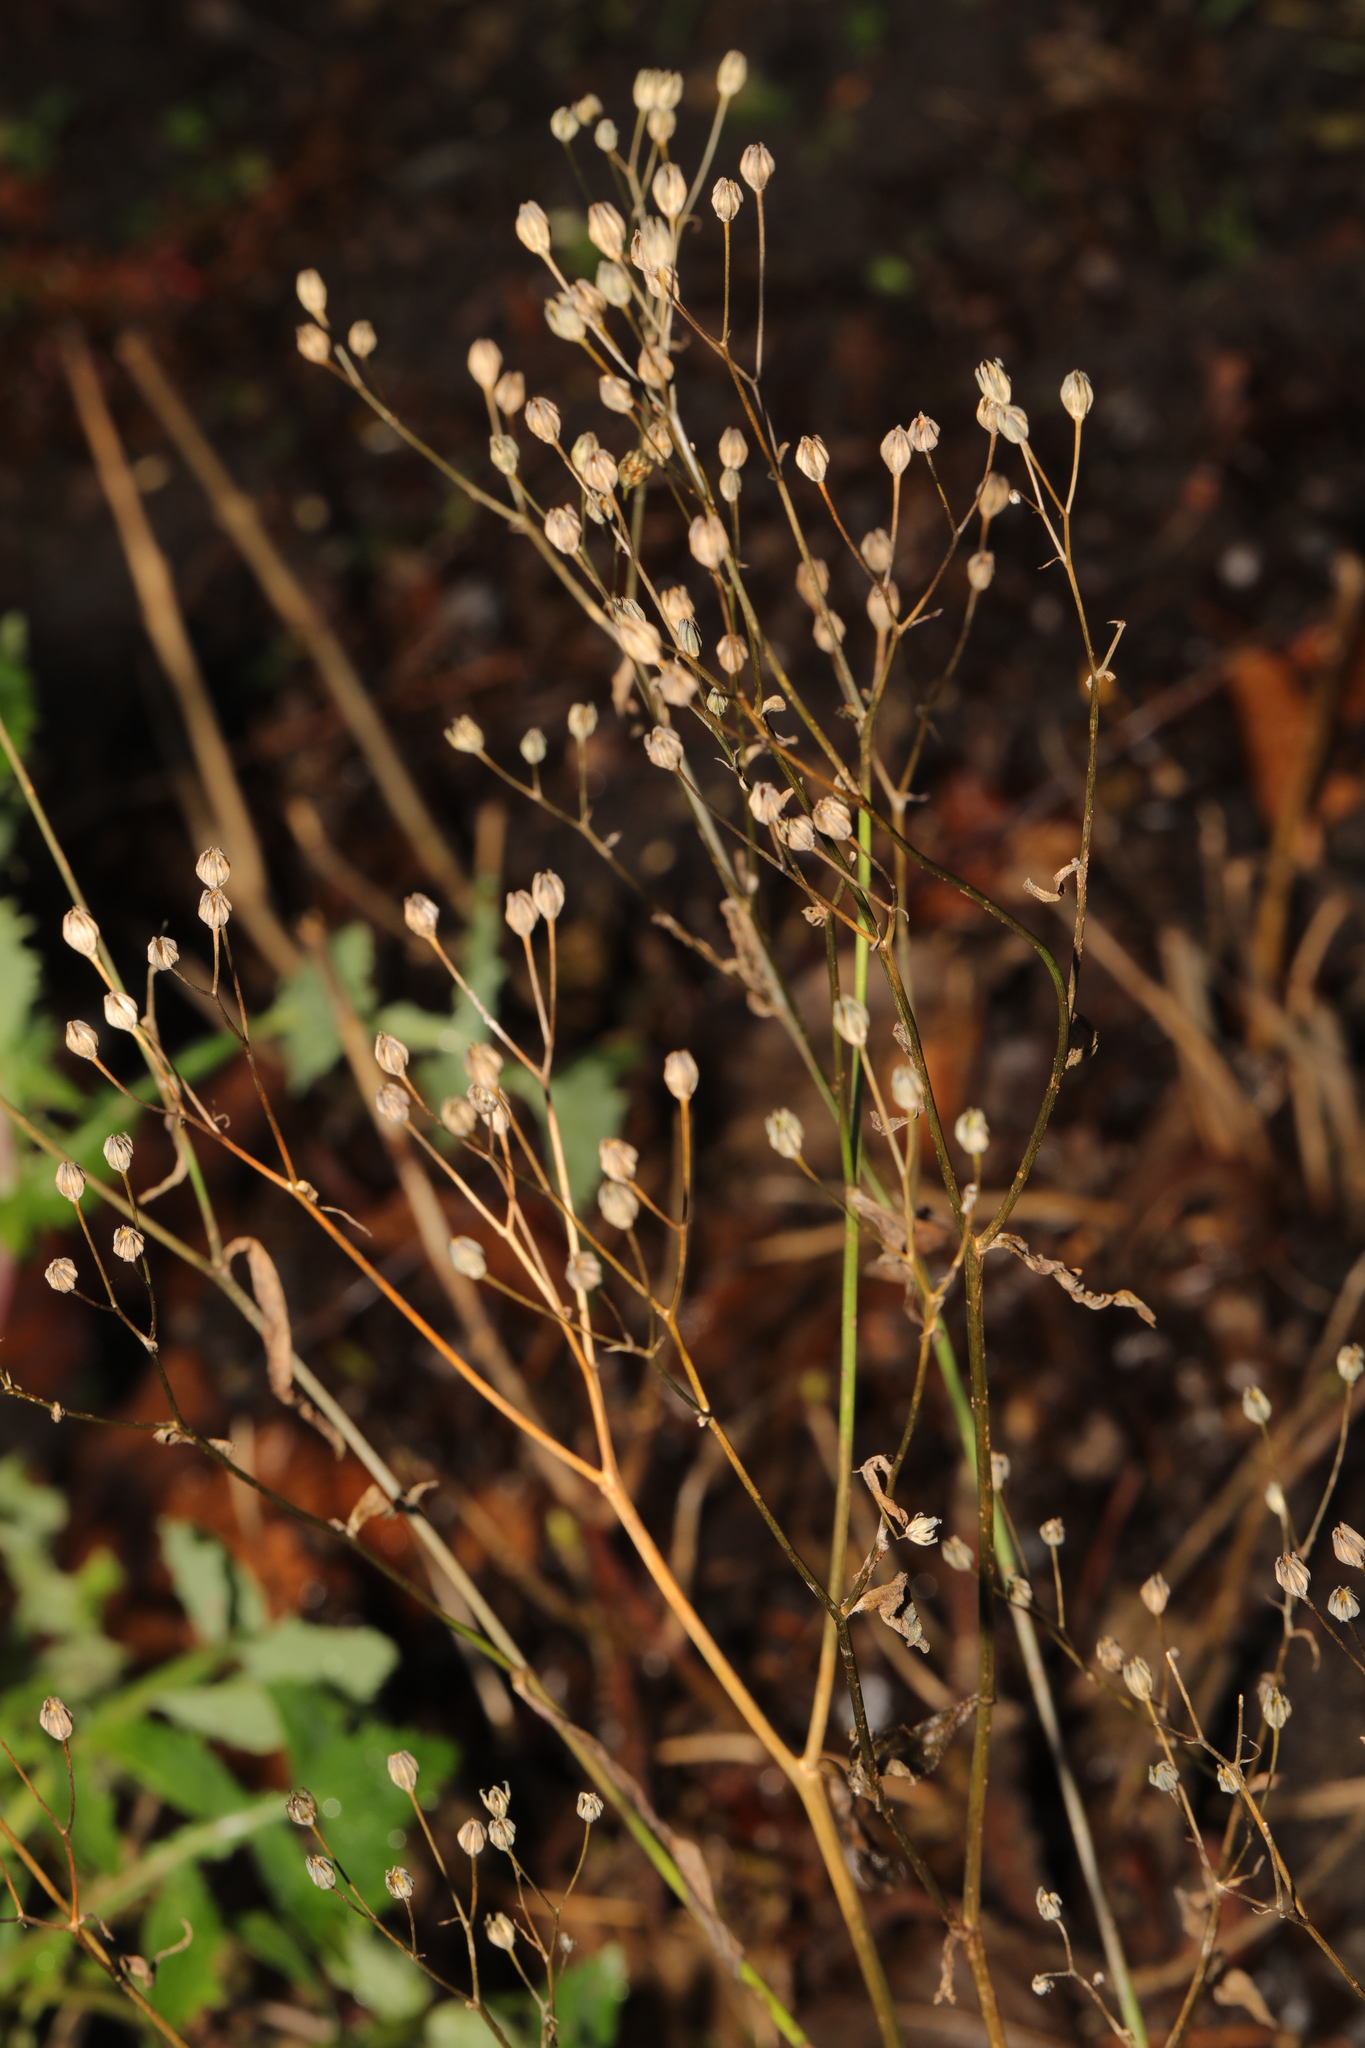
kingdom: Plantae
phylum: Tracheophyta
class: Magnoliopsida
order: Asterales
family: Asteraceae
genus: Lapsana
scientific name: Lapsana communis
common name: Nipplewort
